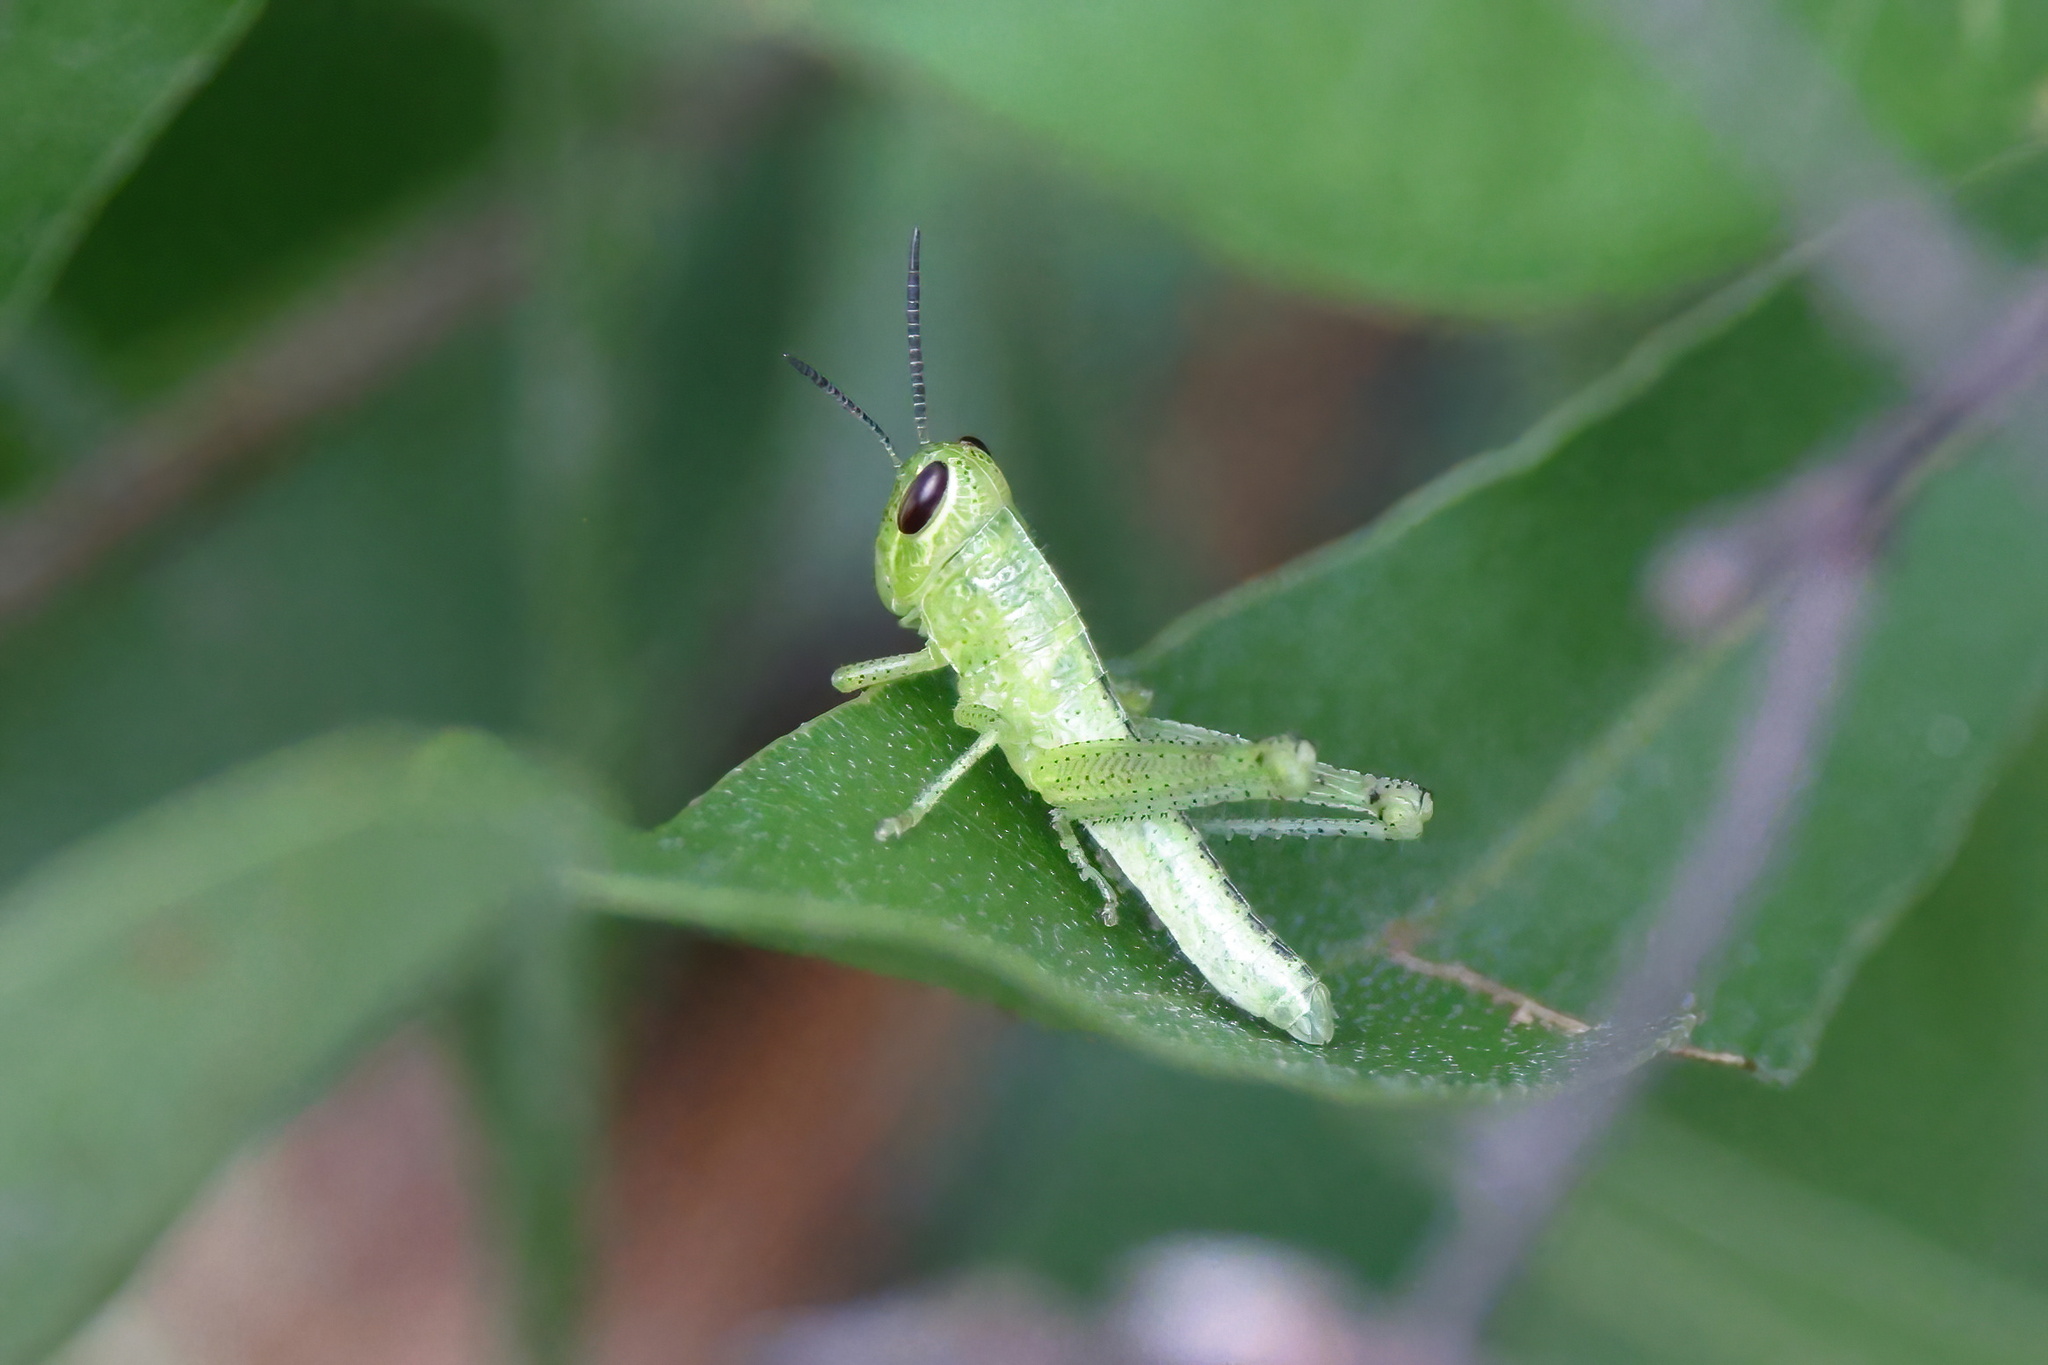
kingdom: Animalia
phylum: Arthropoda
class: Insecta
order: Orthoptera
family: Acrididae
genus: Schistocerca
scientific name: Schistocerca americana
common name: American bird locust
